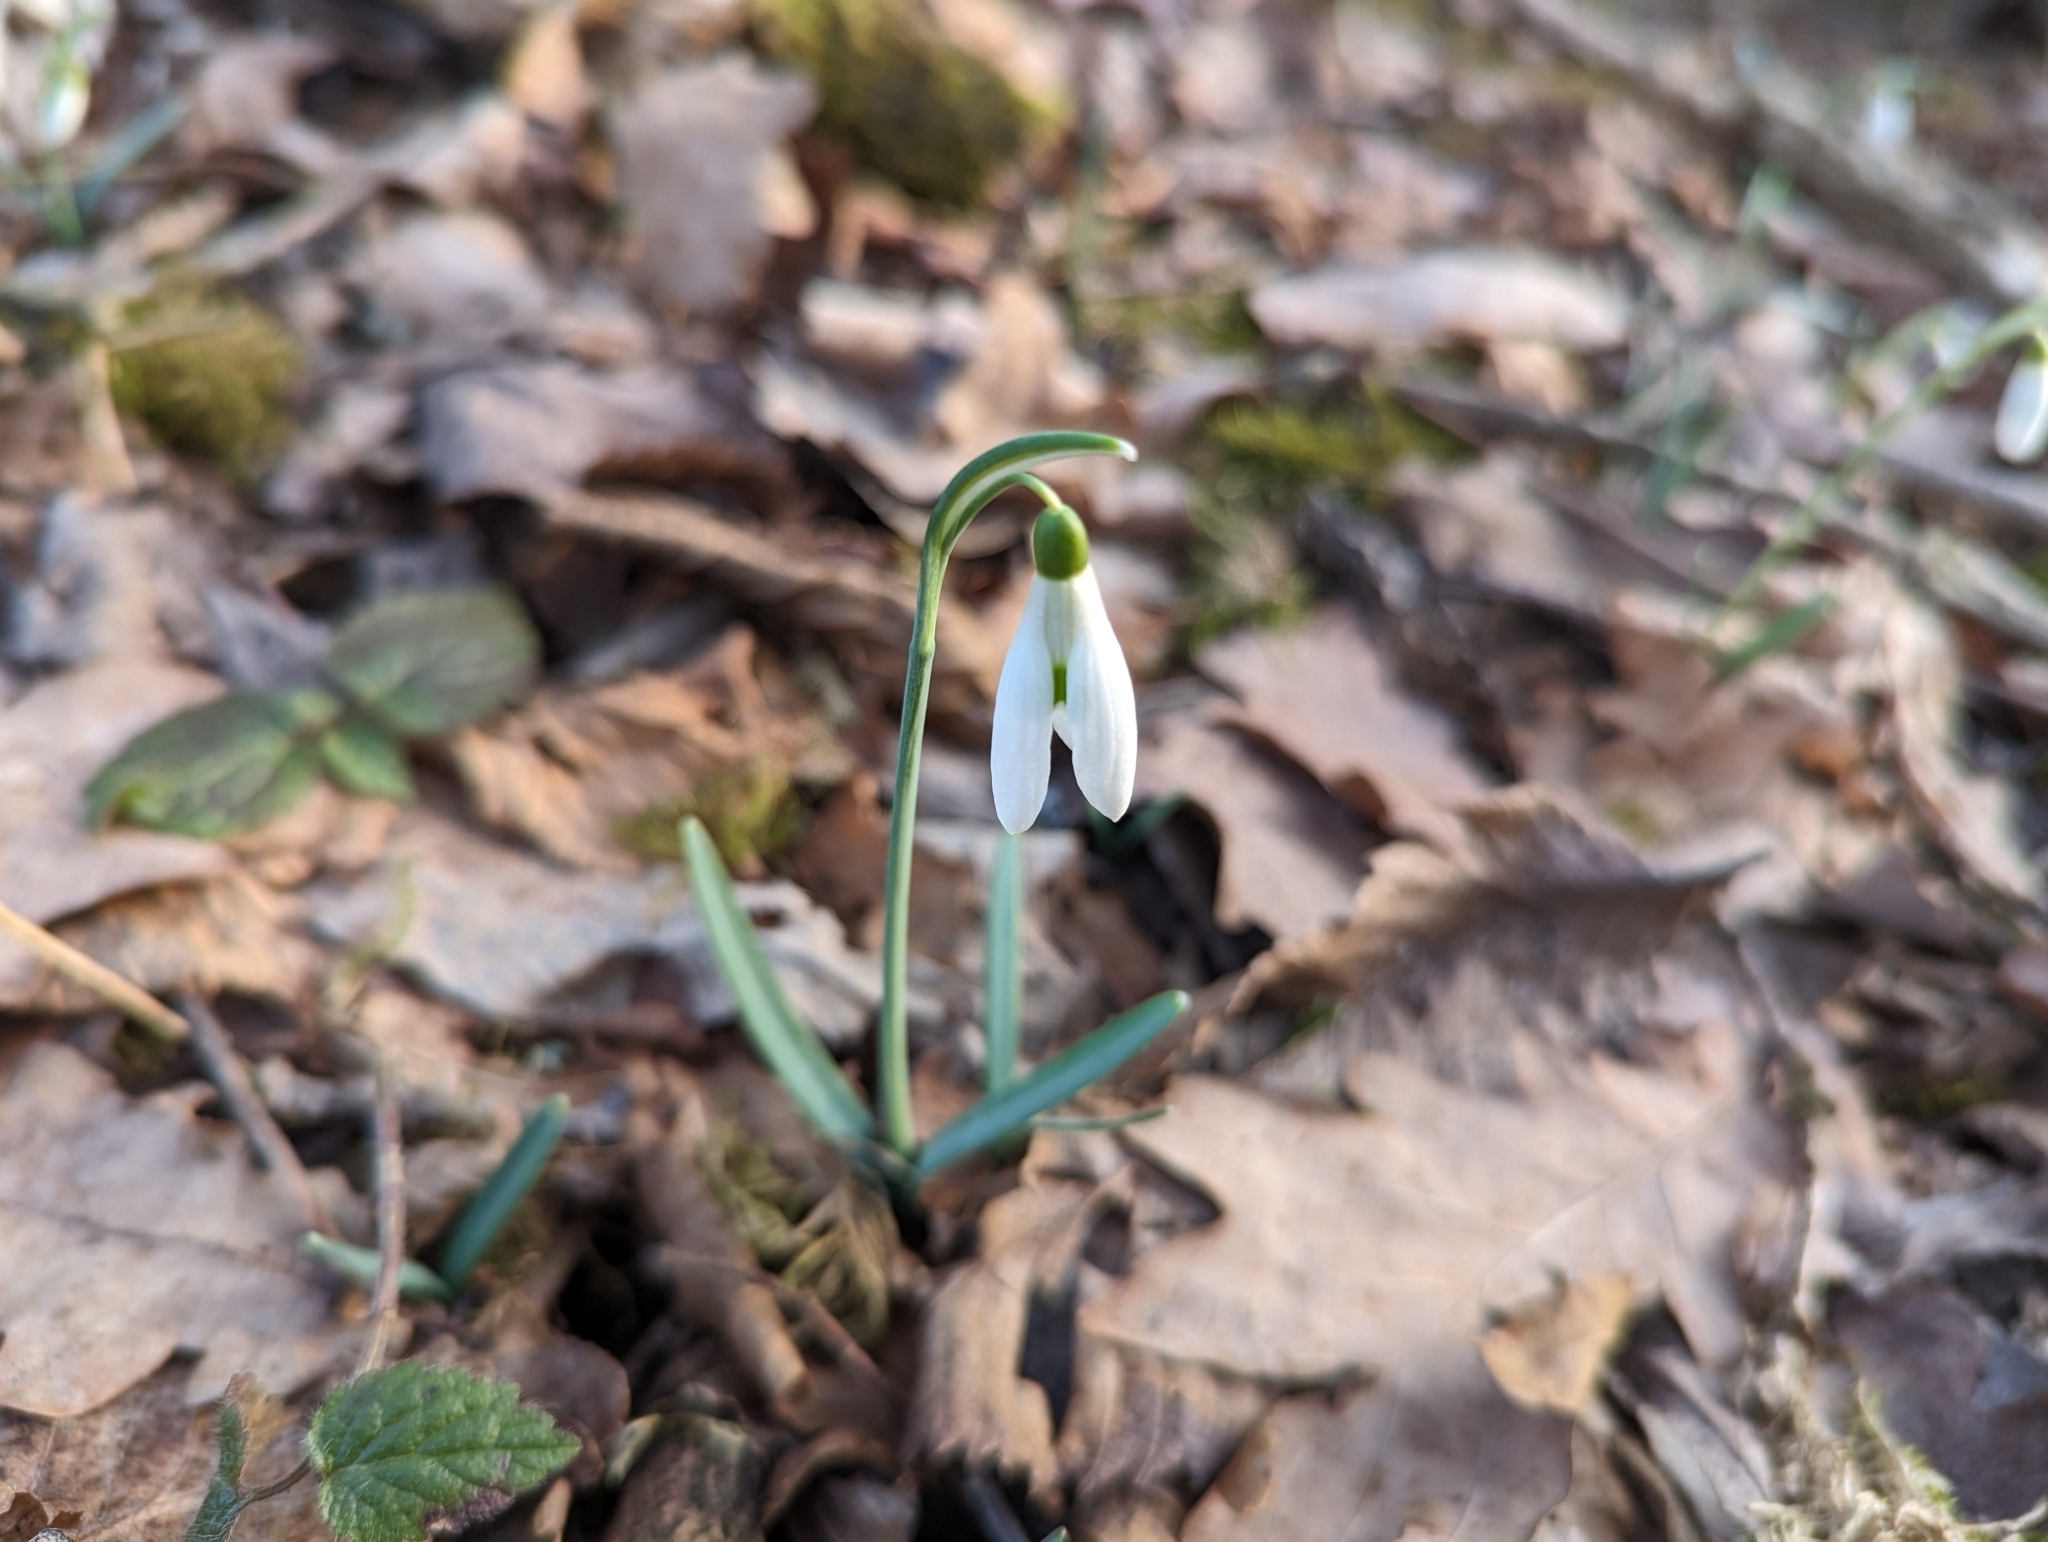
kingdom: Plantae
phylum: Tracheophyta
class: Liliopsida
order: Asparagales
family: Amaryllidaceae
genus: Galanthus
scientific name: Galanthus nivalis
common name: Snowdrop
